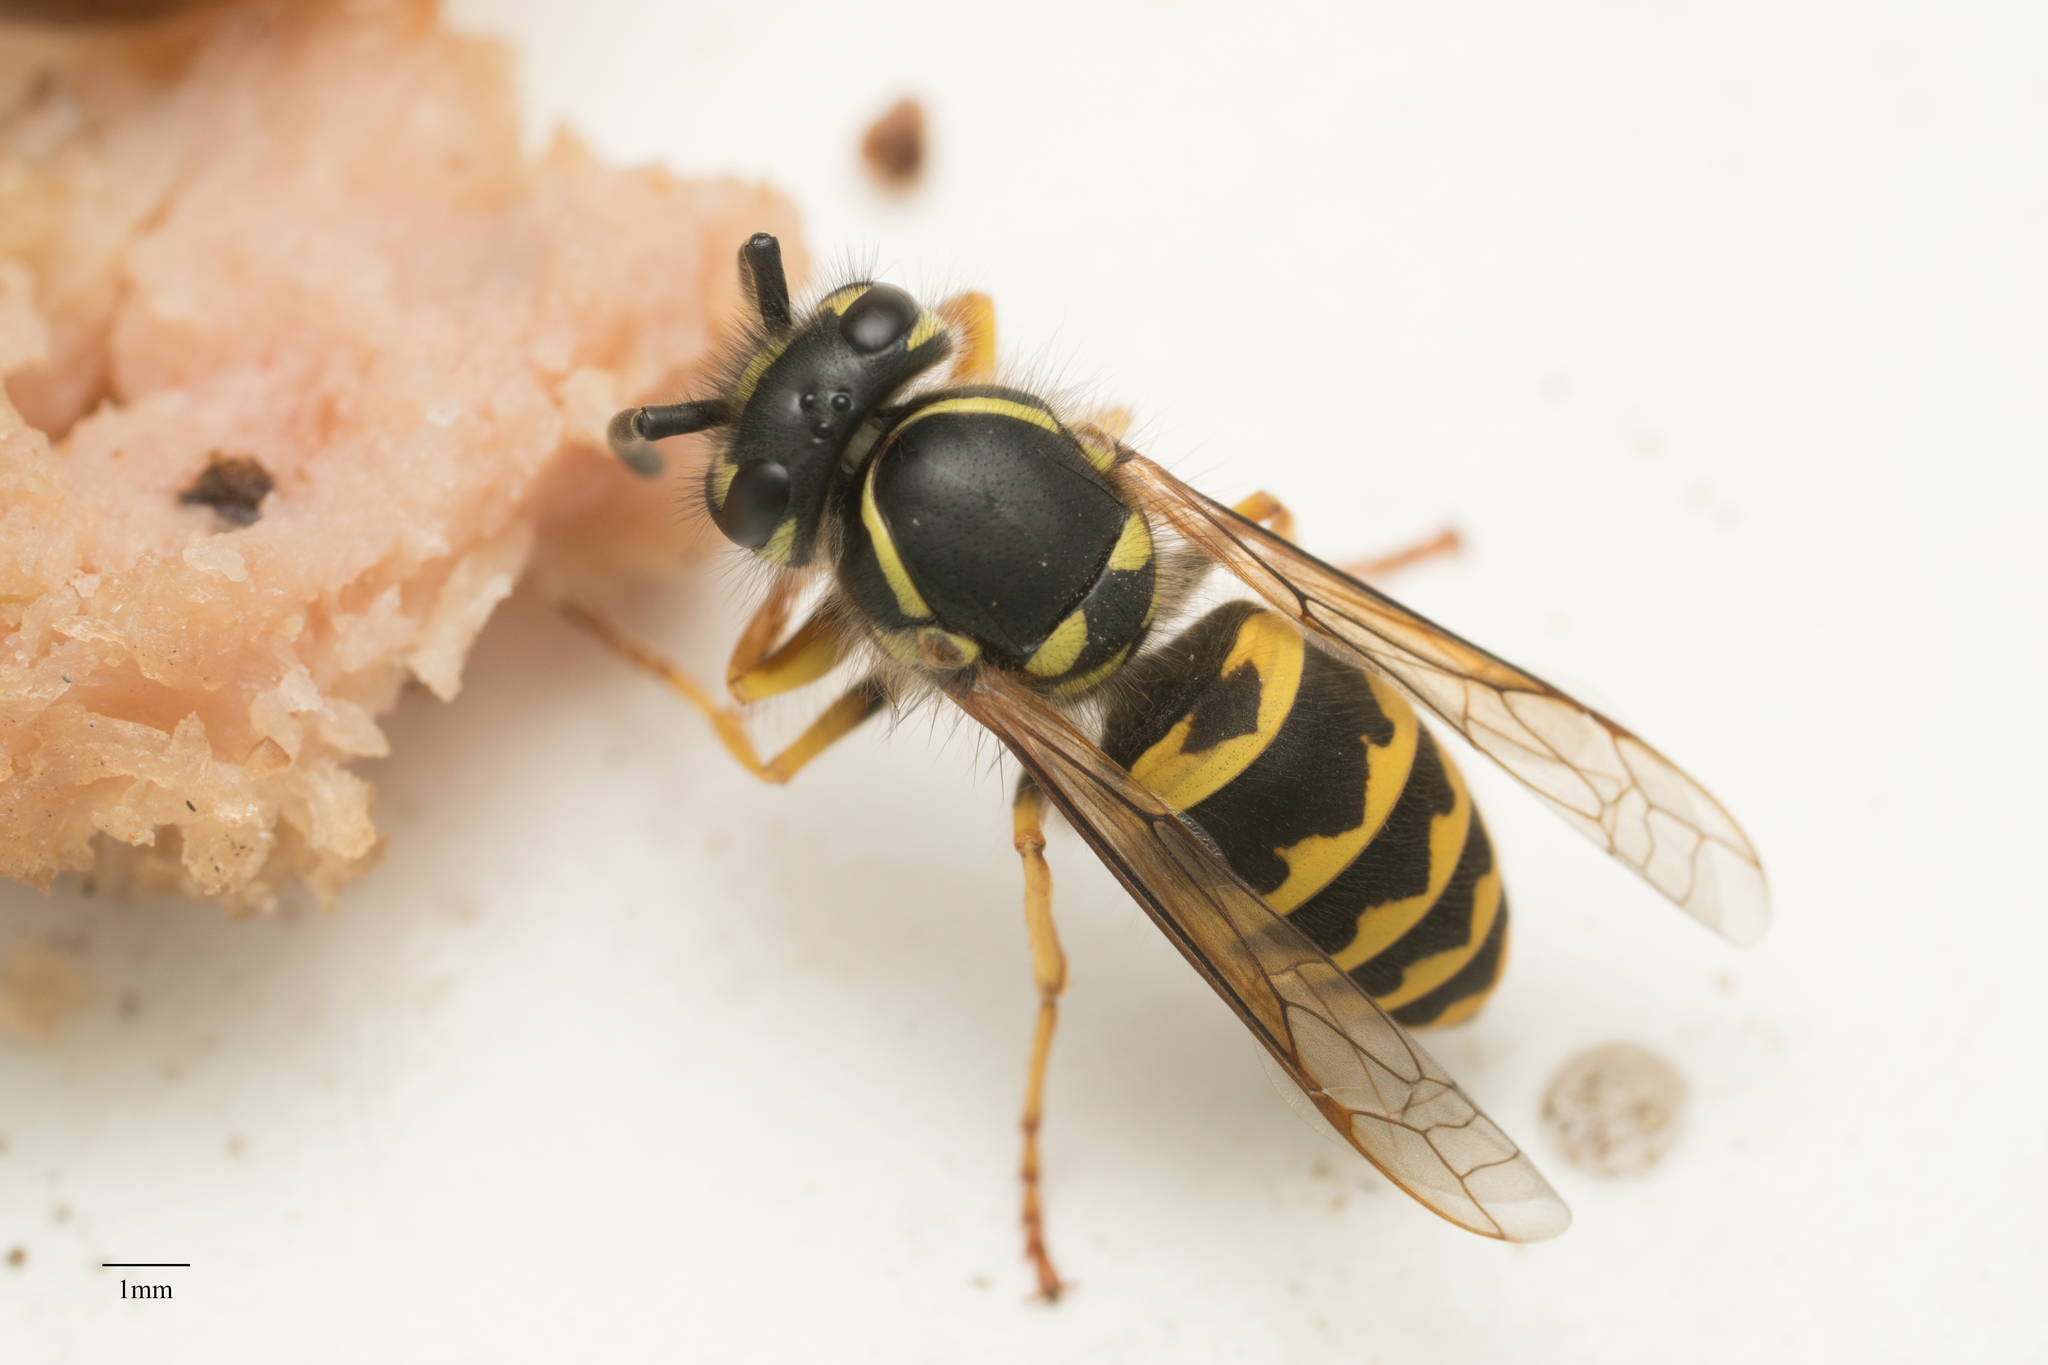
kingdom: Animalia
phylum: Arthropoda
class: Insecta
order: Hymenoptera
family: Vespidae
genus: Vespula
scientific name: Vespula alascensis
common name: Alaska yellowjacket
